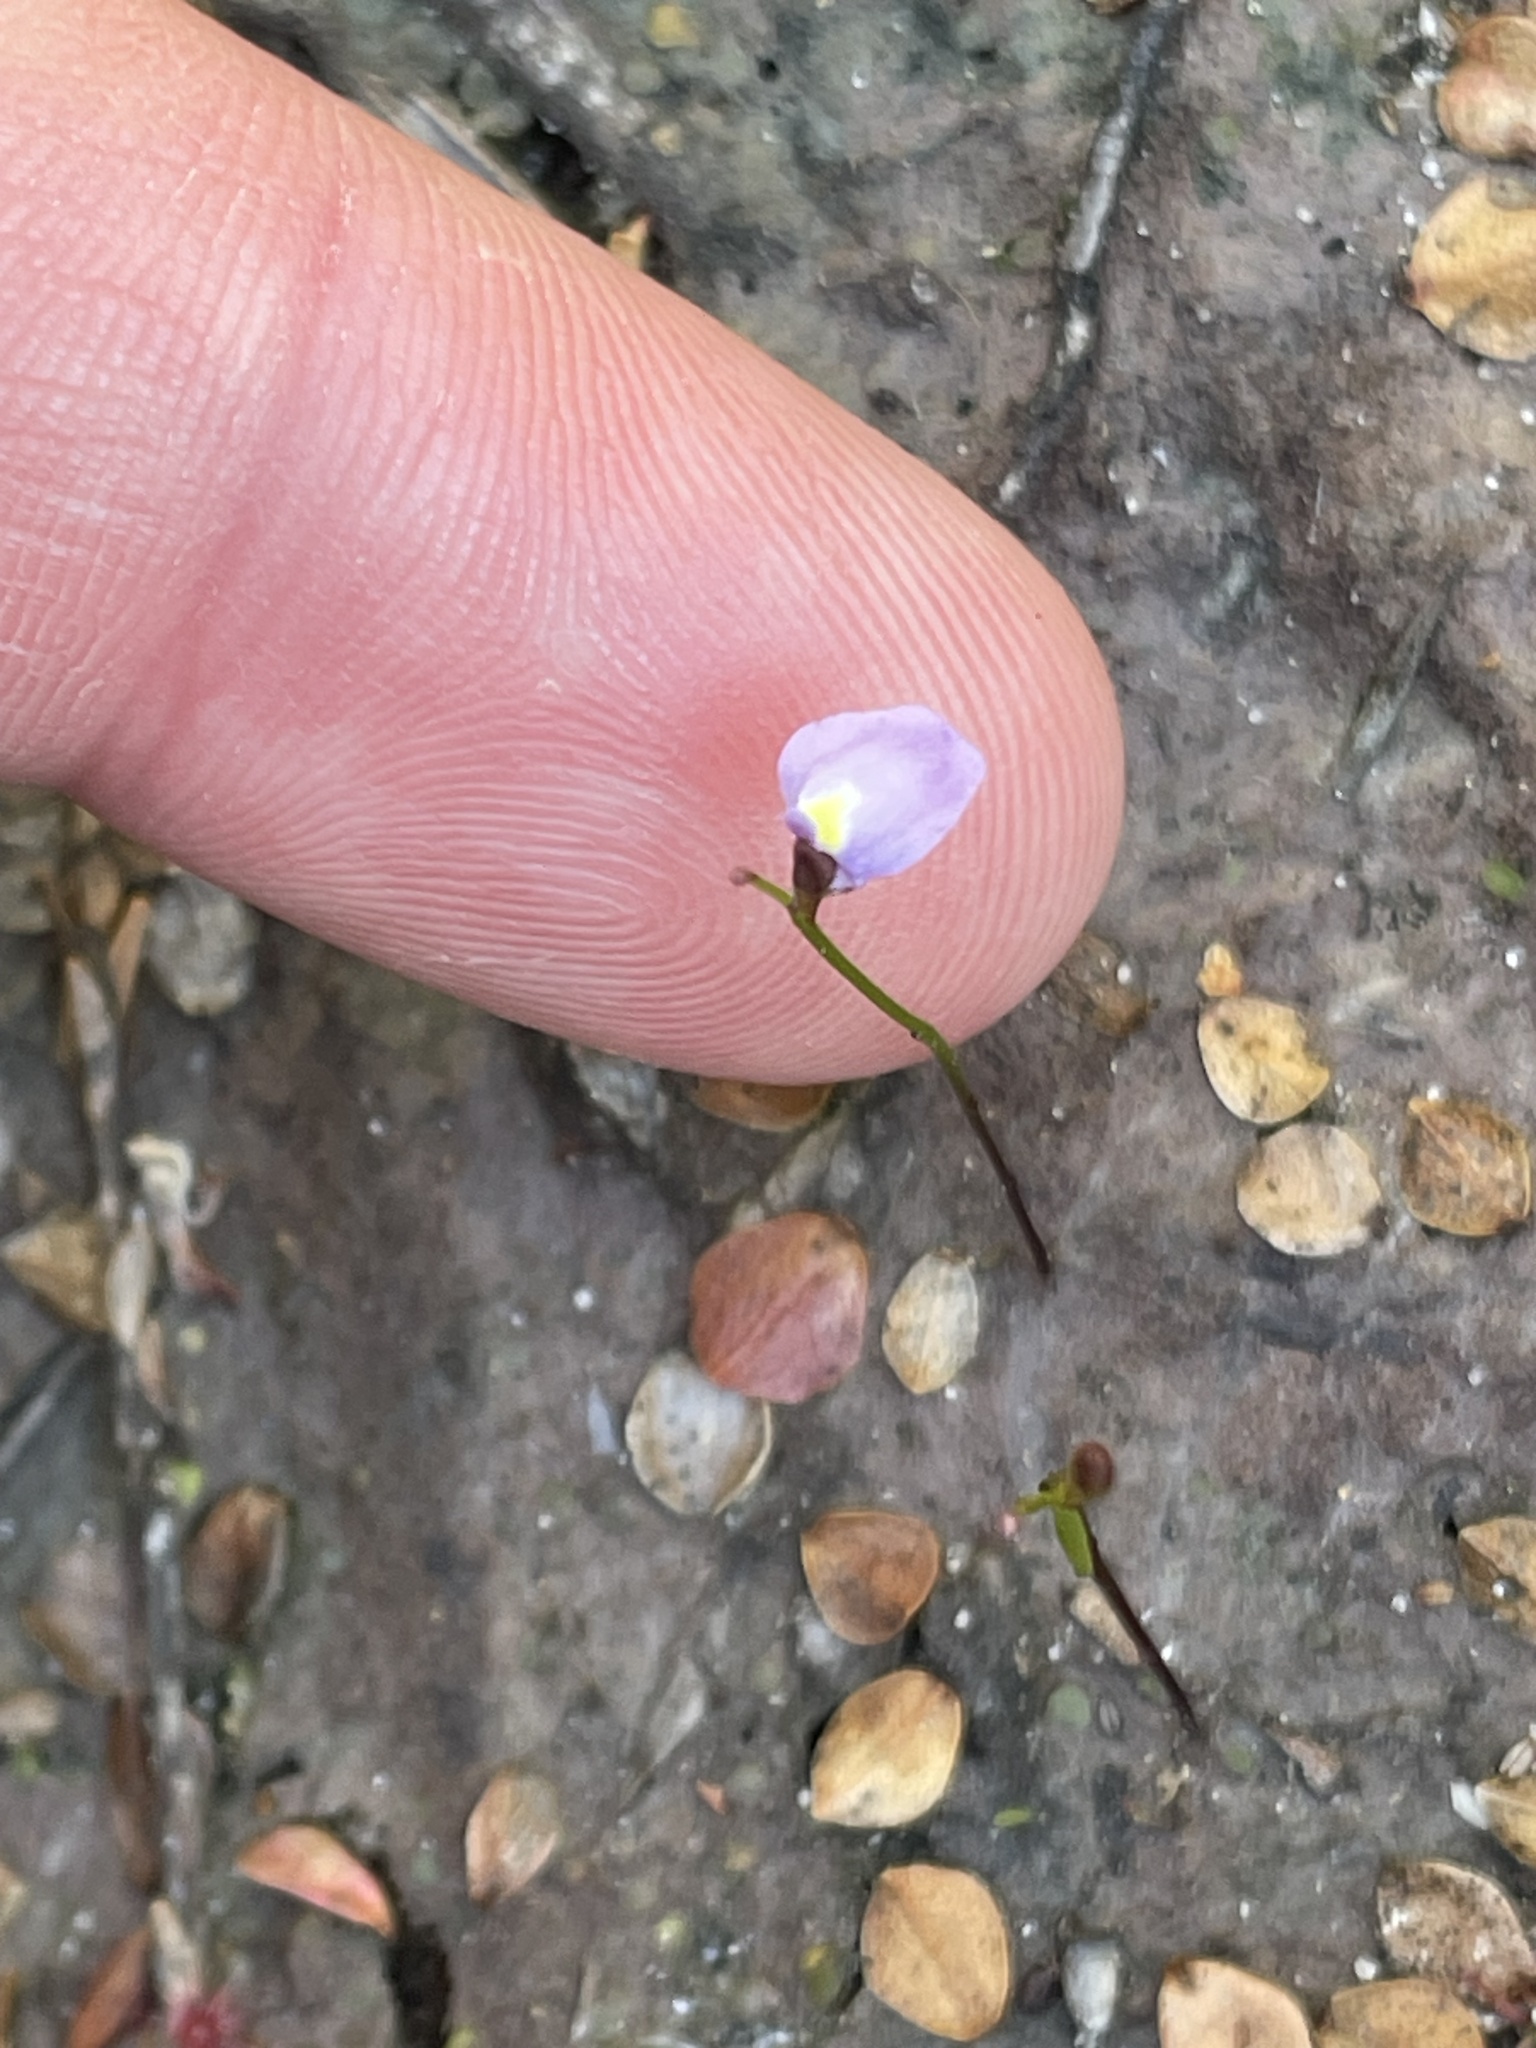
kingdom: Plantae
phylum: Tracheophyta
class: Magnoliopsida
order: Lamiales
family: Lentibulariaceae
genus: Utricularia
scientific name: Utricularia lateriflora
